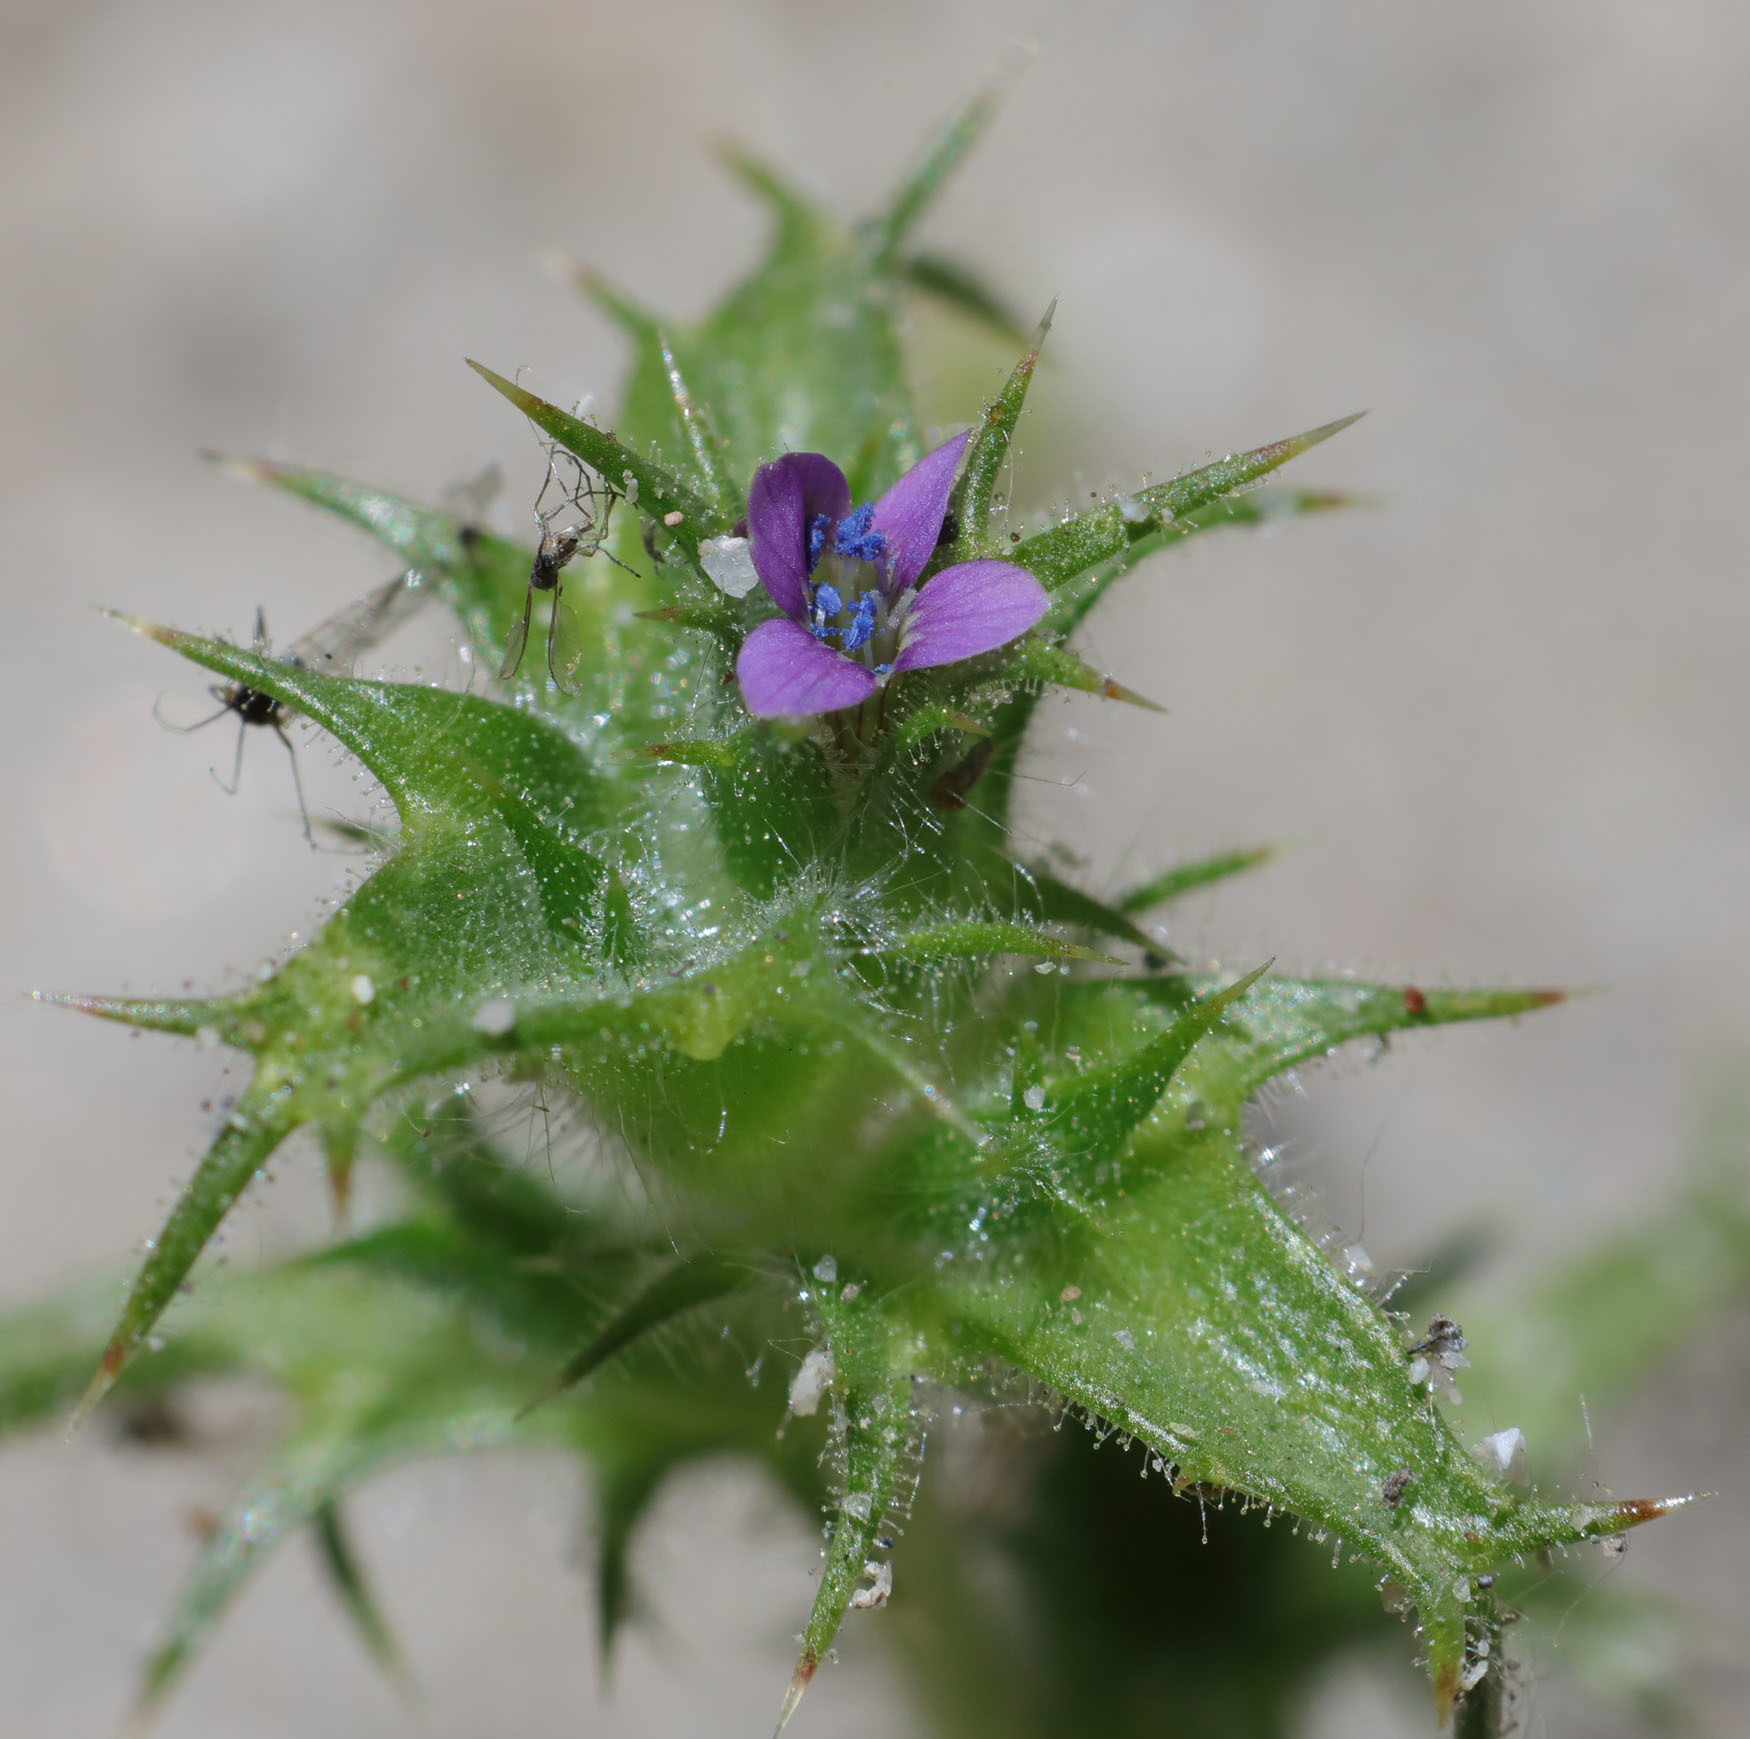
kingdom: Plantae
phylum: Tracheophyta
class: Magnoliopsida
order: Ericales
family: Polemoniaceae
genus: Navarretia
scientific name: Navarretia atractyloides
